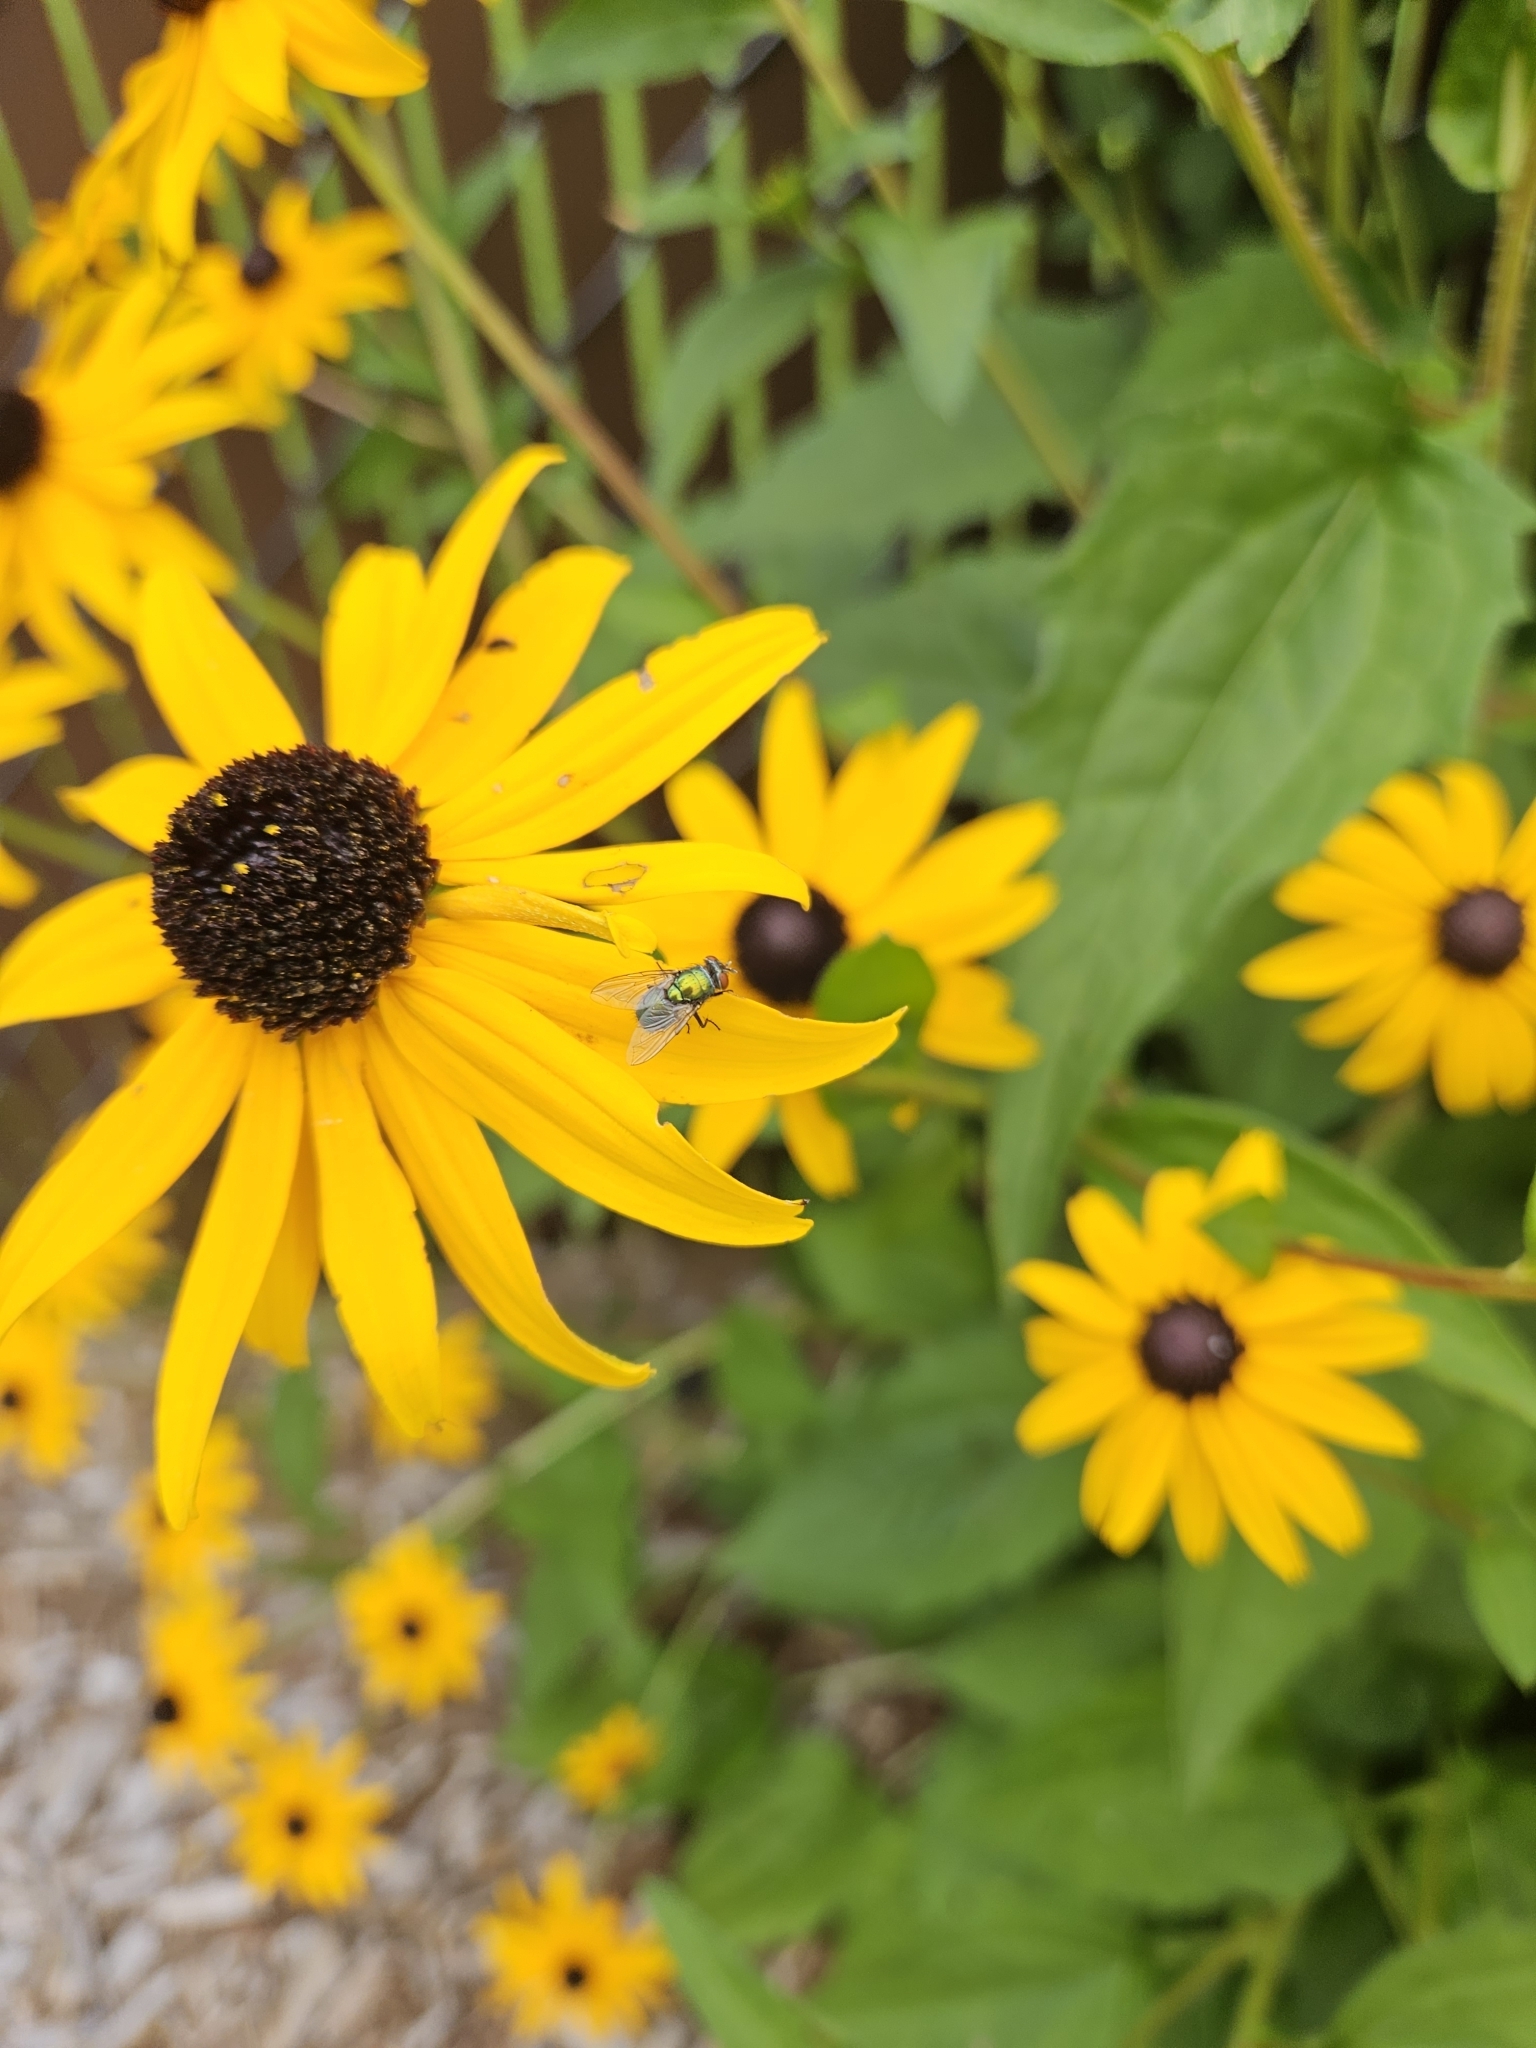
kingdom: Animalia
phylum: Arthropoda
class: Insecta
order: Diptera
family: Calliphoridae
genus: Lucilia
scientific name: Lucilia sericata
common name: Blow fly
